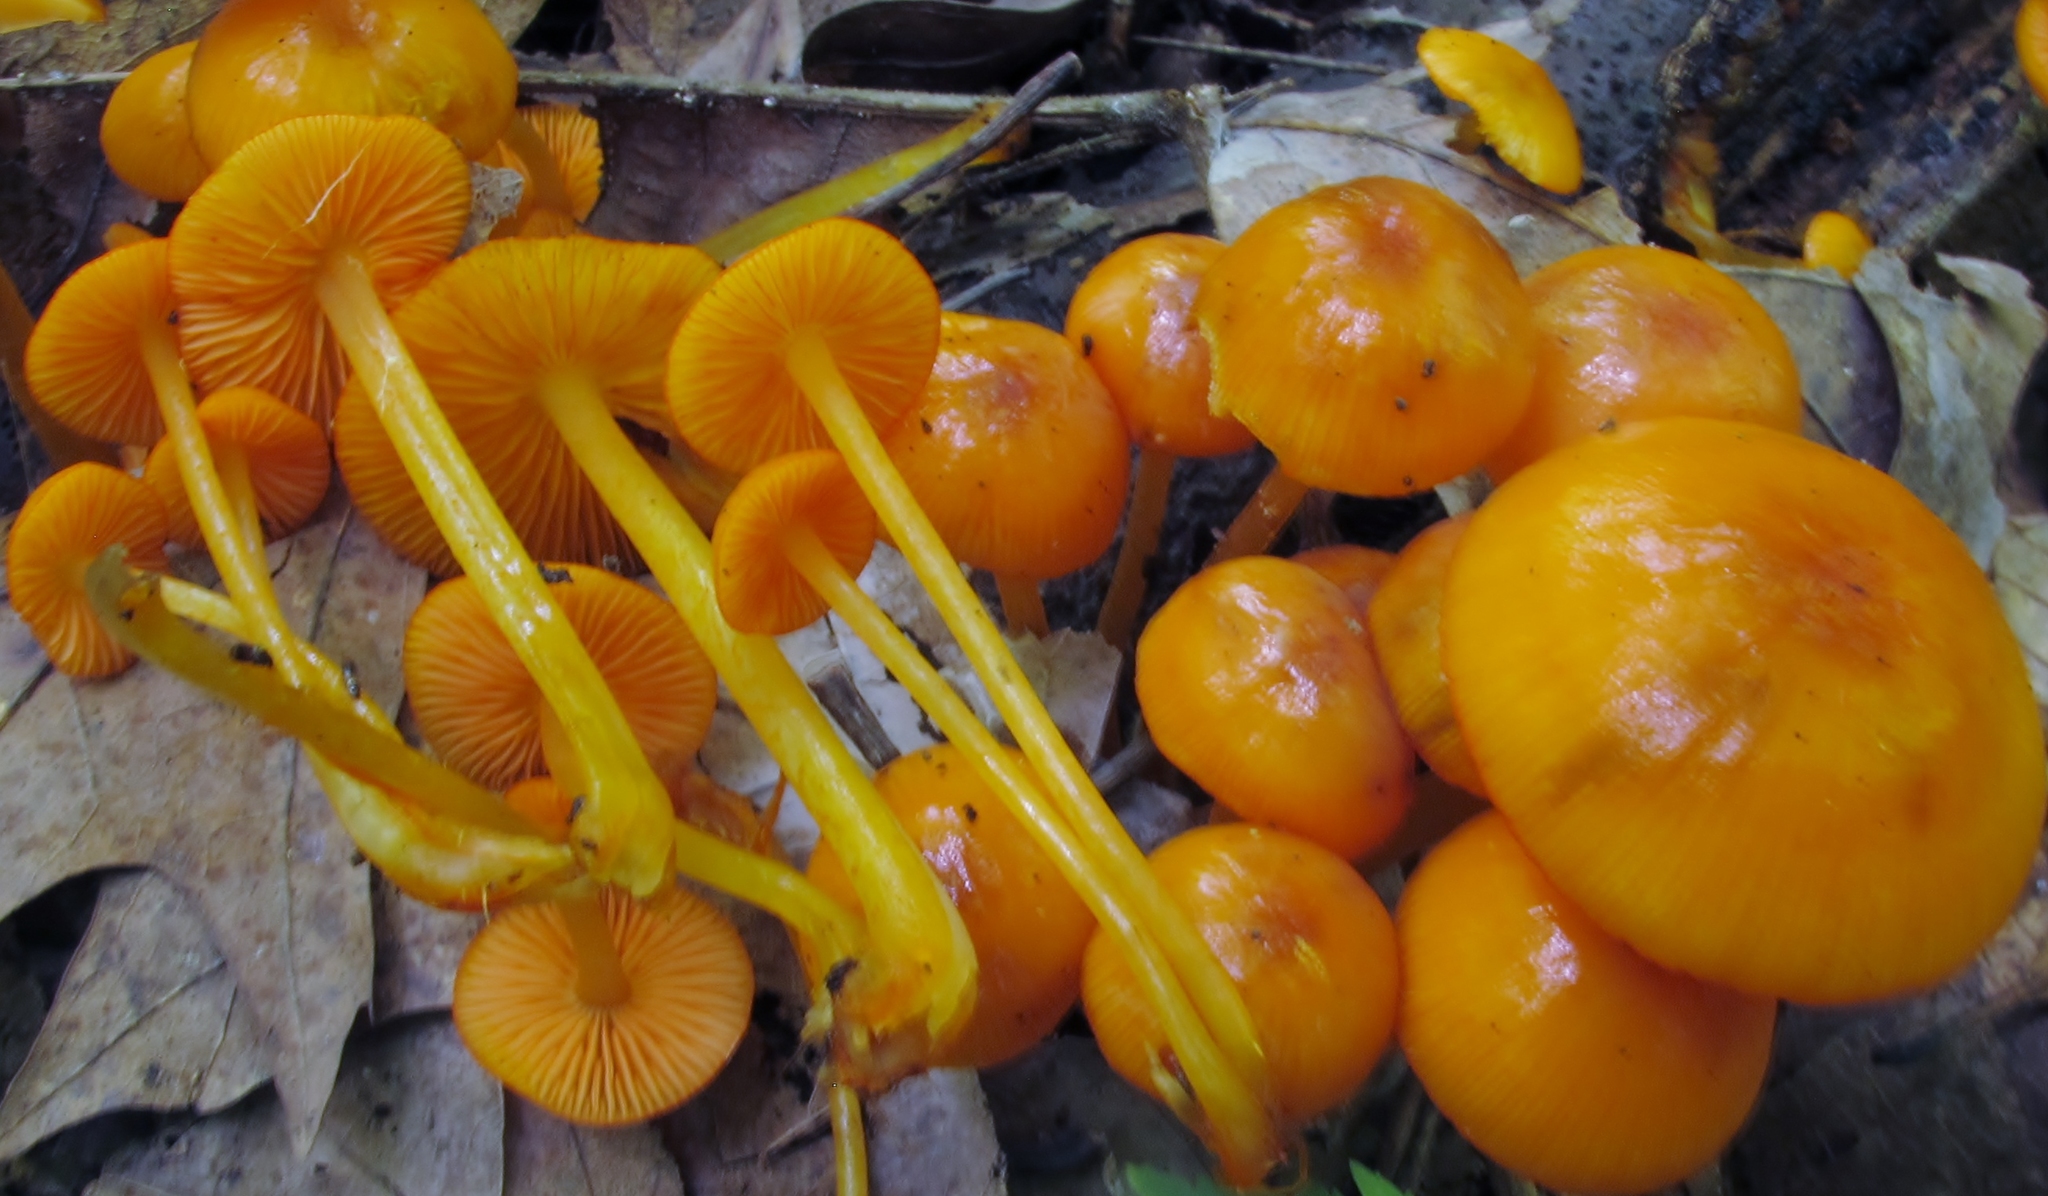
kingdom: Fungi
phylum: Basidiomycota
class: Agaricomycetes
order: Agaricales
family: Mycenaceae
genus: Mycena
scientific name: Mycena leaiana
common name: Orange mycena
